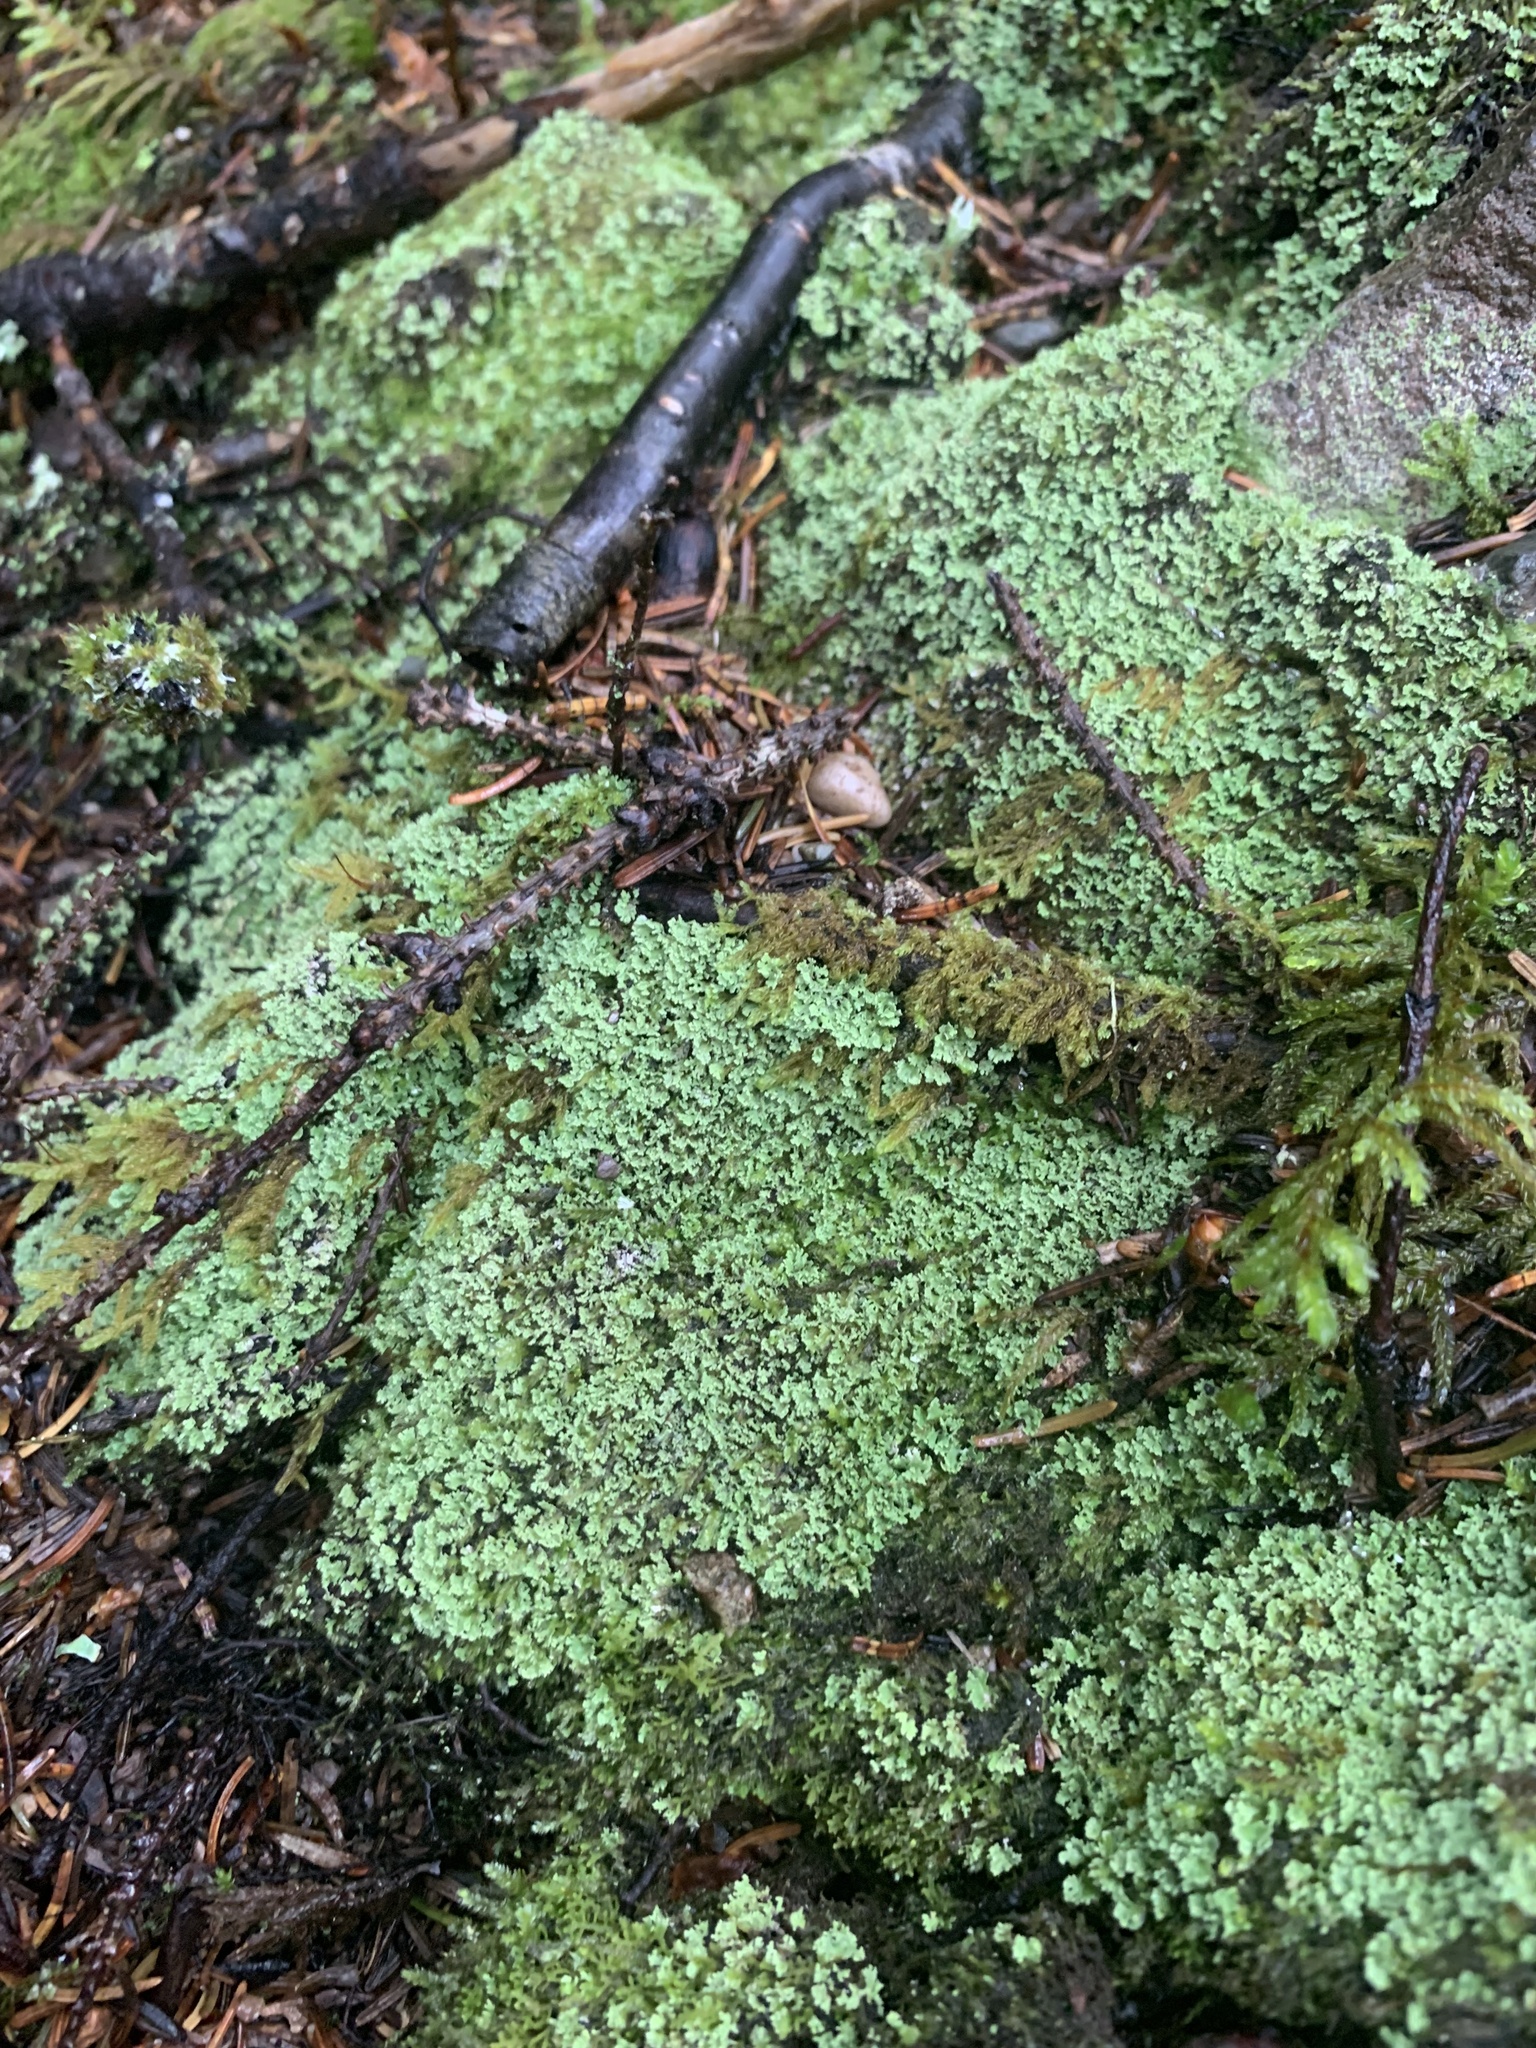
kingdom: Fungi
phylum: Ascomycota
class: Lecanoromycetes
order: Lecanorales
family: Cladoniaceae
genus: Cladonia
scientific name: Cladonia coniocraea
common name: Common powderhorn
